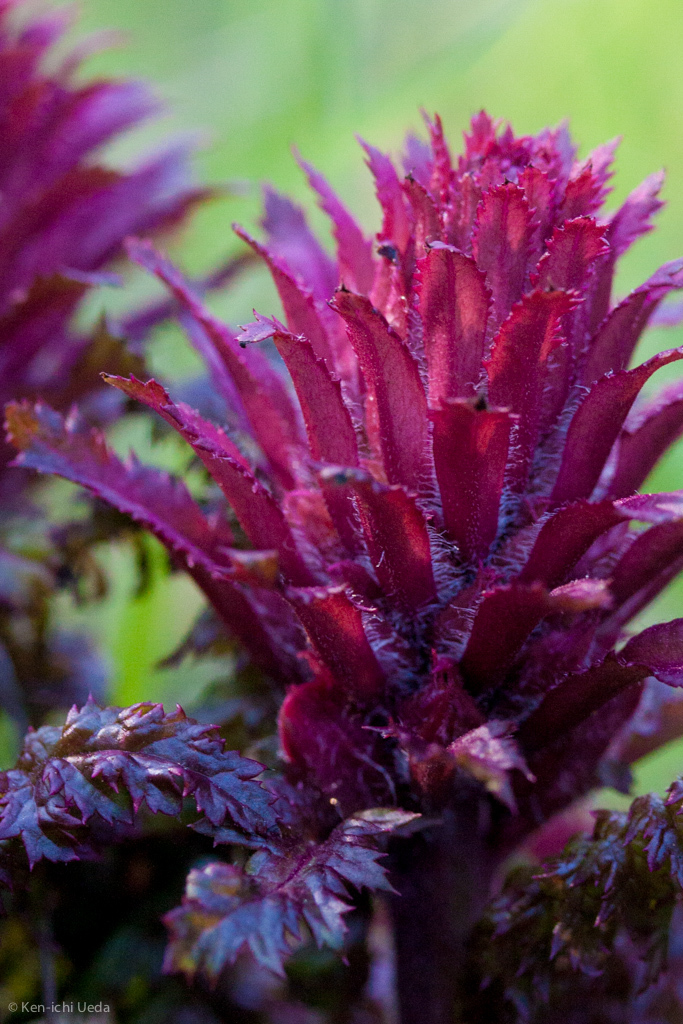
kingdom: Plantae
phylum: Tracheophyta
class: Magnoliopsida
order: Lamiales
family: Orobanchaceae
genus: Pedicularis
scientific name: Pedicularis densiflora
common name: Indian warrior
